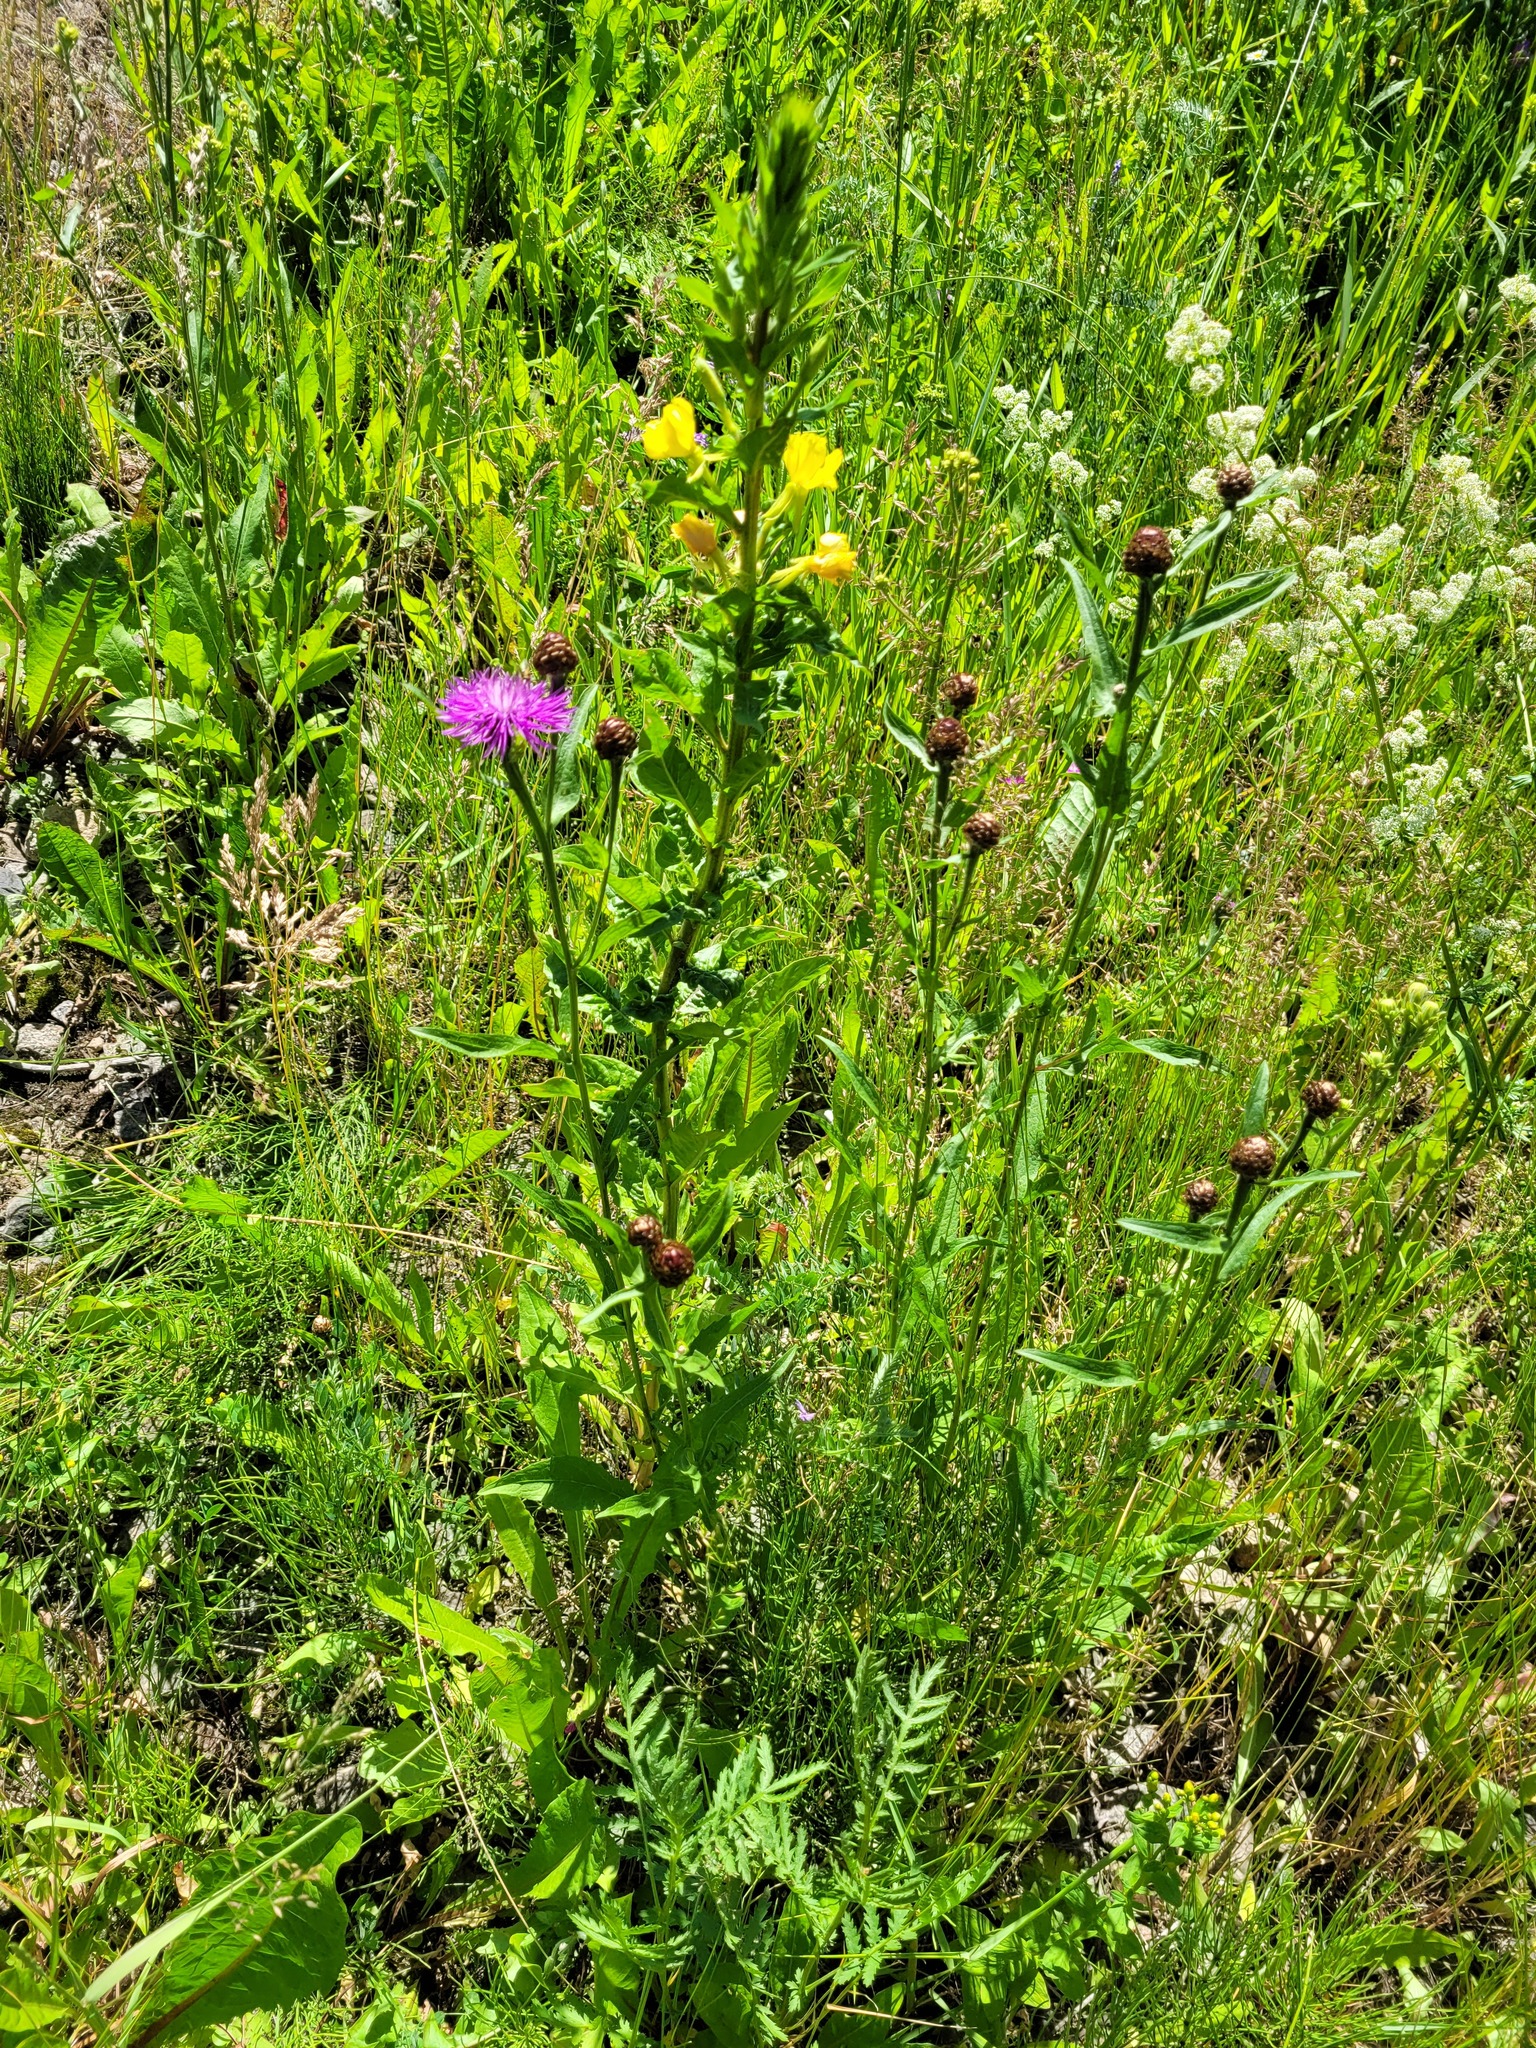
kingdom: Plantae
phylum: Tracheophyta
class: Magnoliopsida
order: Asterales
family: Asteraceae
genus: Centaurea
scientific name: Centaurea jacea
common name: Brown knapweed
